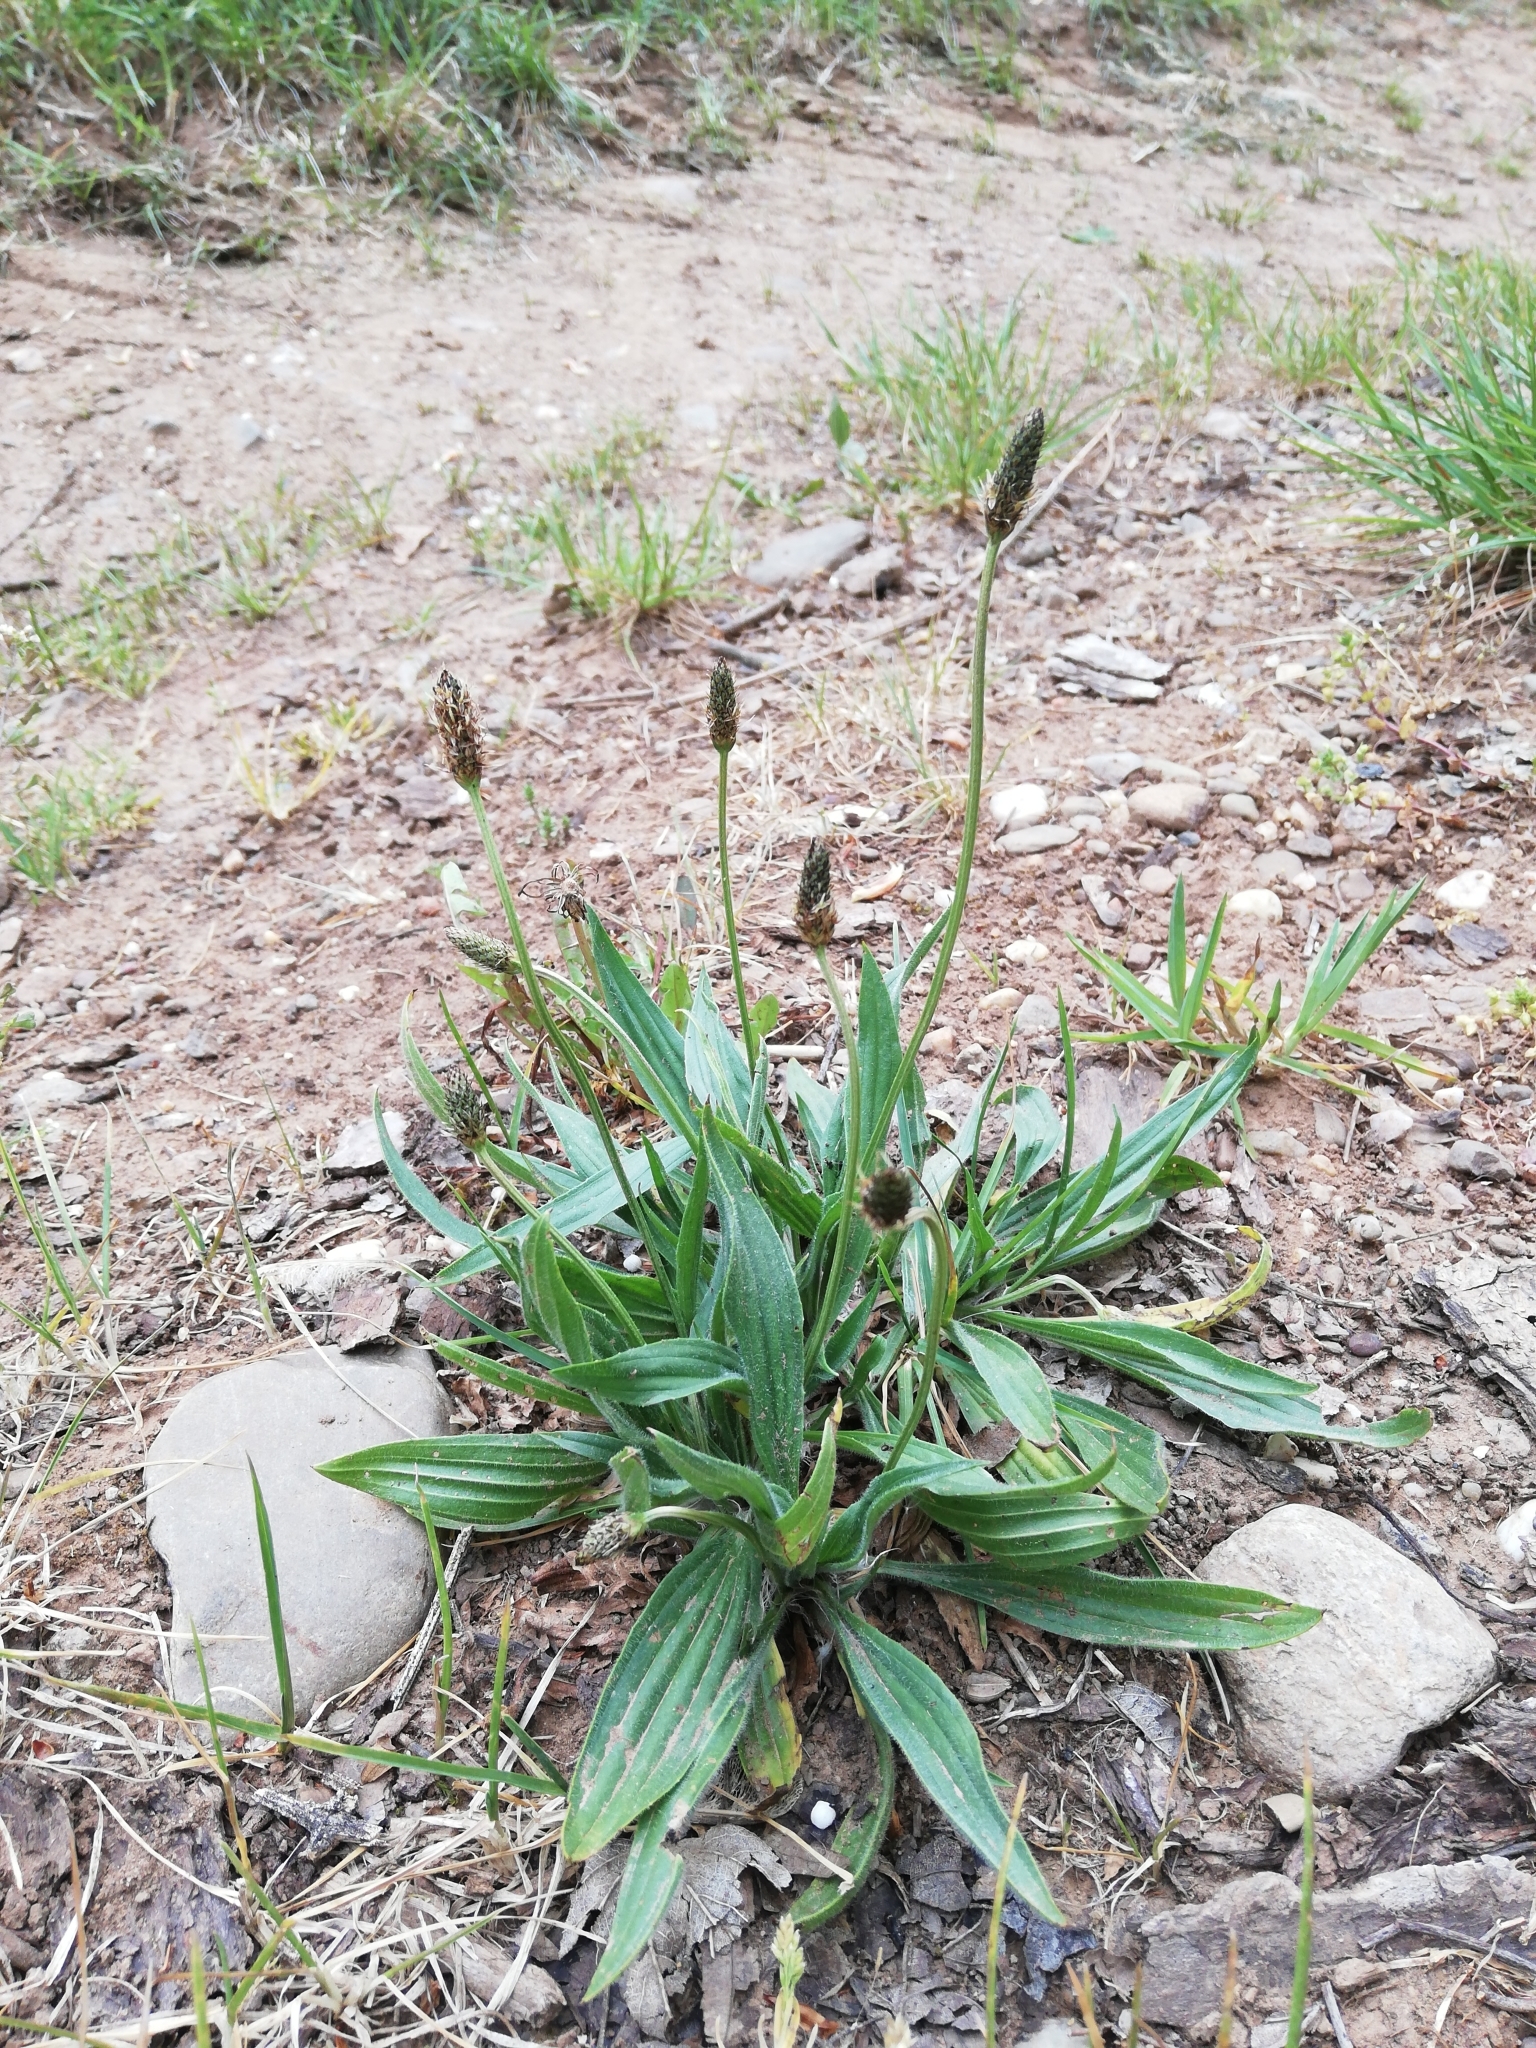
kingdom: Plantae
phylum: Tracheophyta
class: Magnoliopsida
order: Lamiales
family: Plantaginaceae
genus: Plantago
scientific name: Plantago lanceolata
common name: Ribwort plantain
